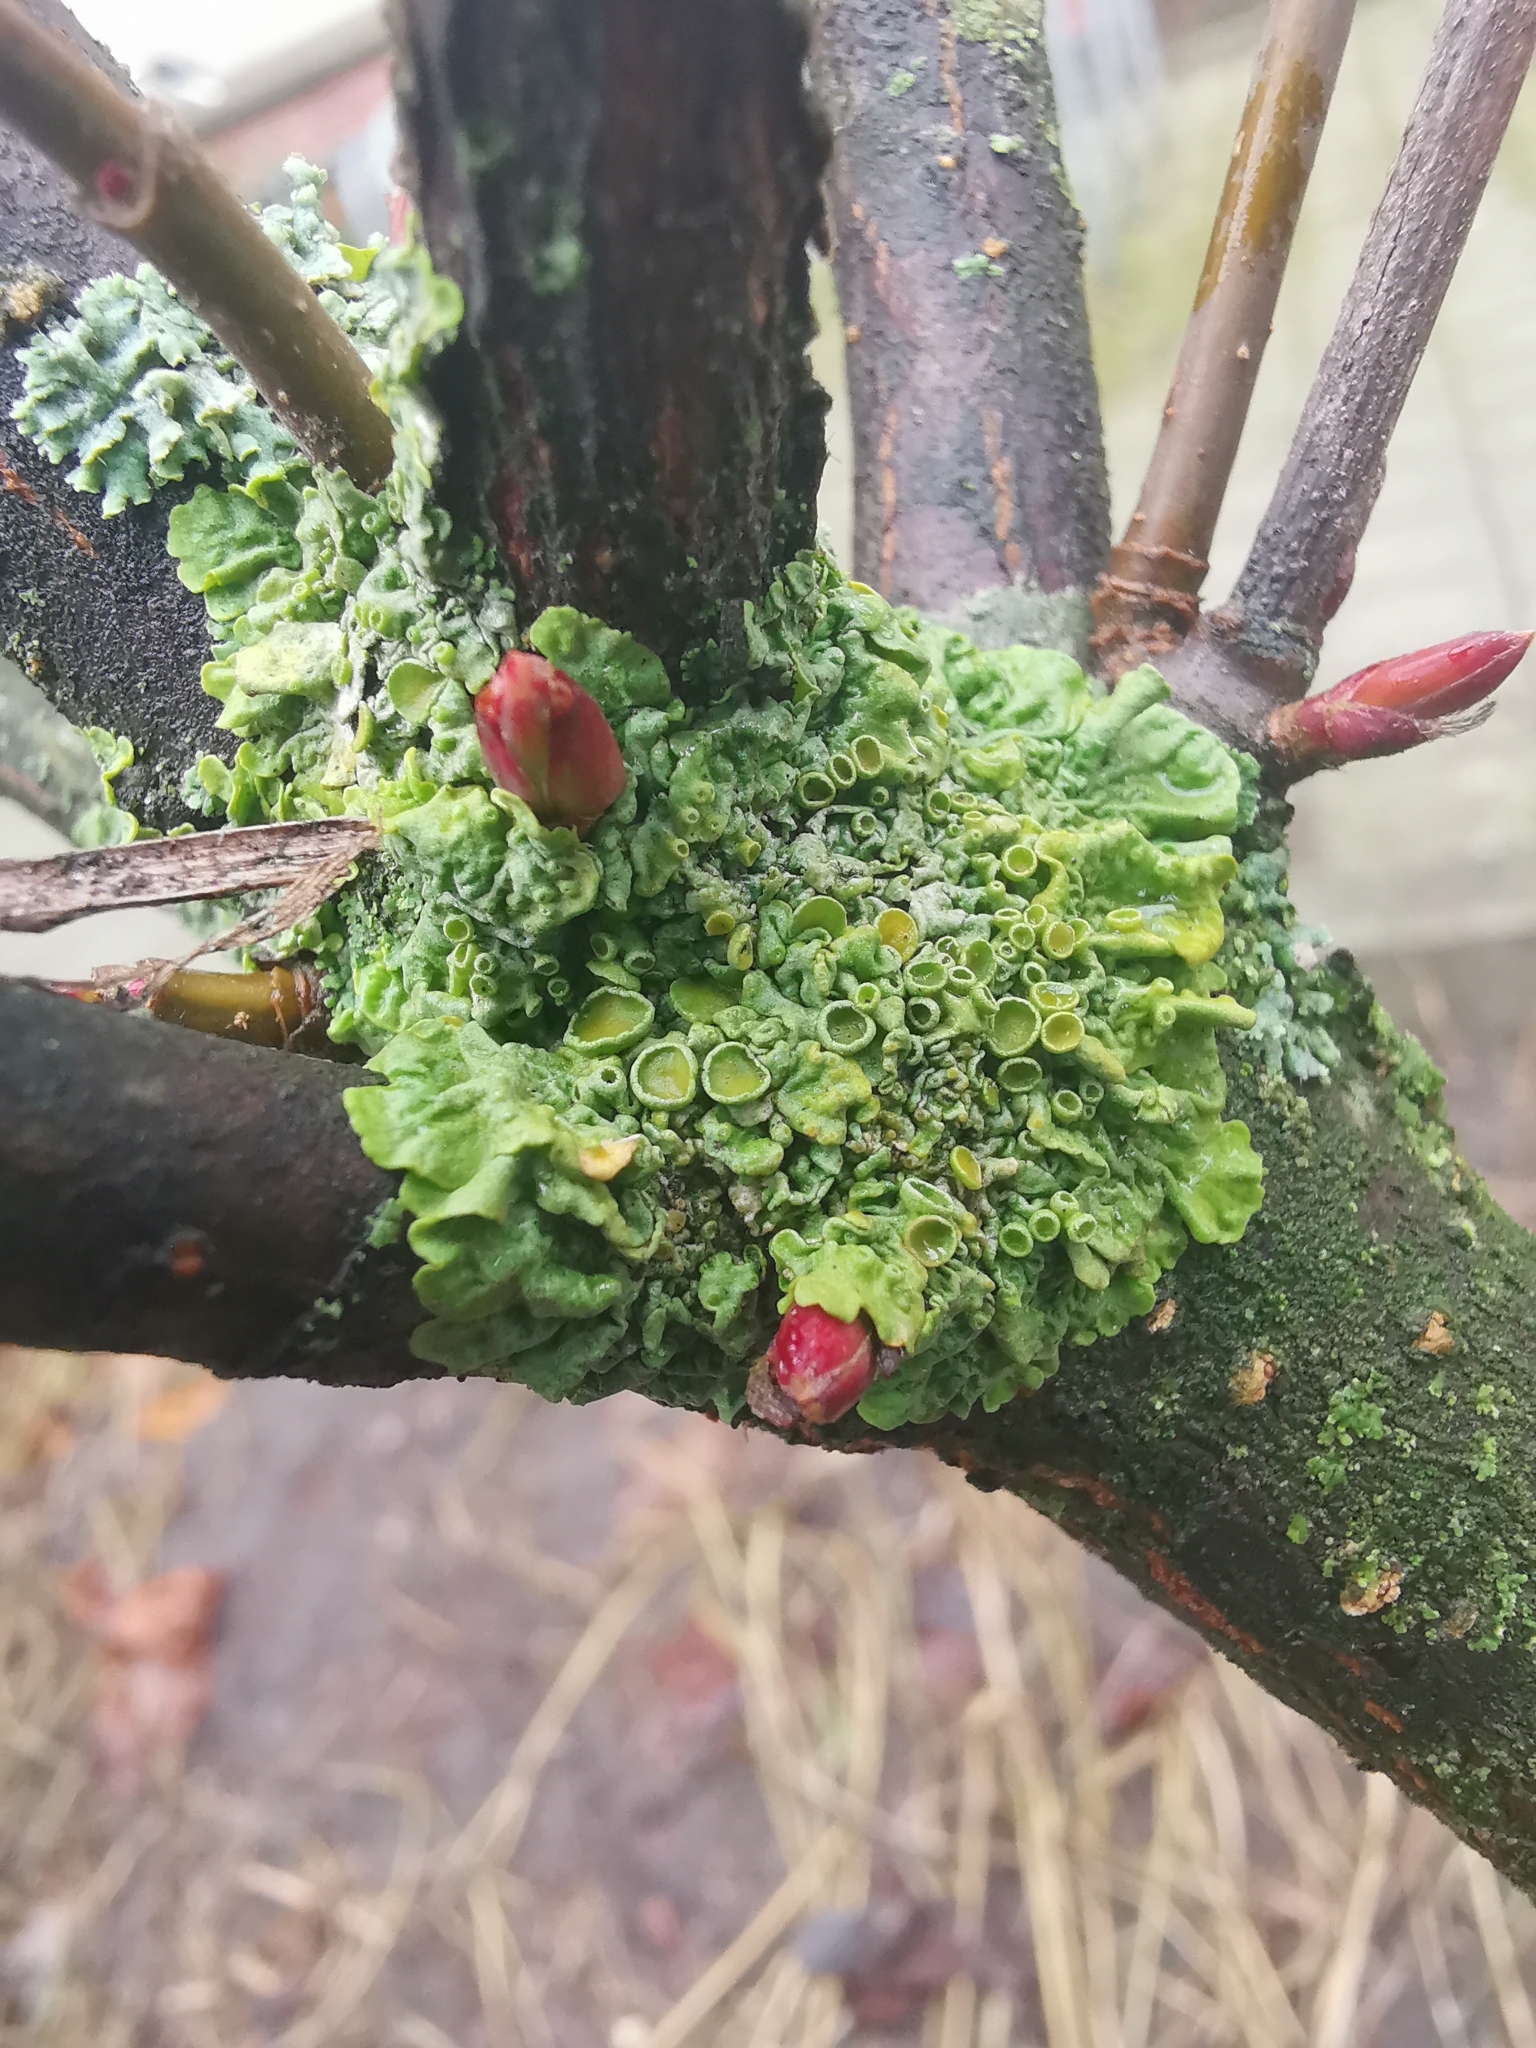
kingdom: Fungi
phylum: Ascomycota
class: Lecanoromycetes
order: Teloschistales
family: Teloschistaceae
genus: Xanthoria
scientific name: Xanthoria parietina
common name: Common orange lichen
